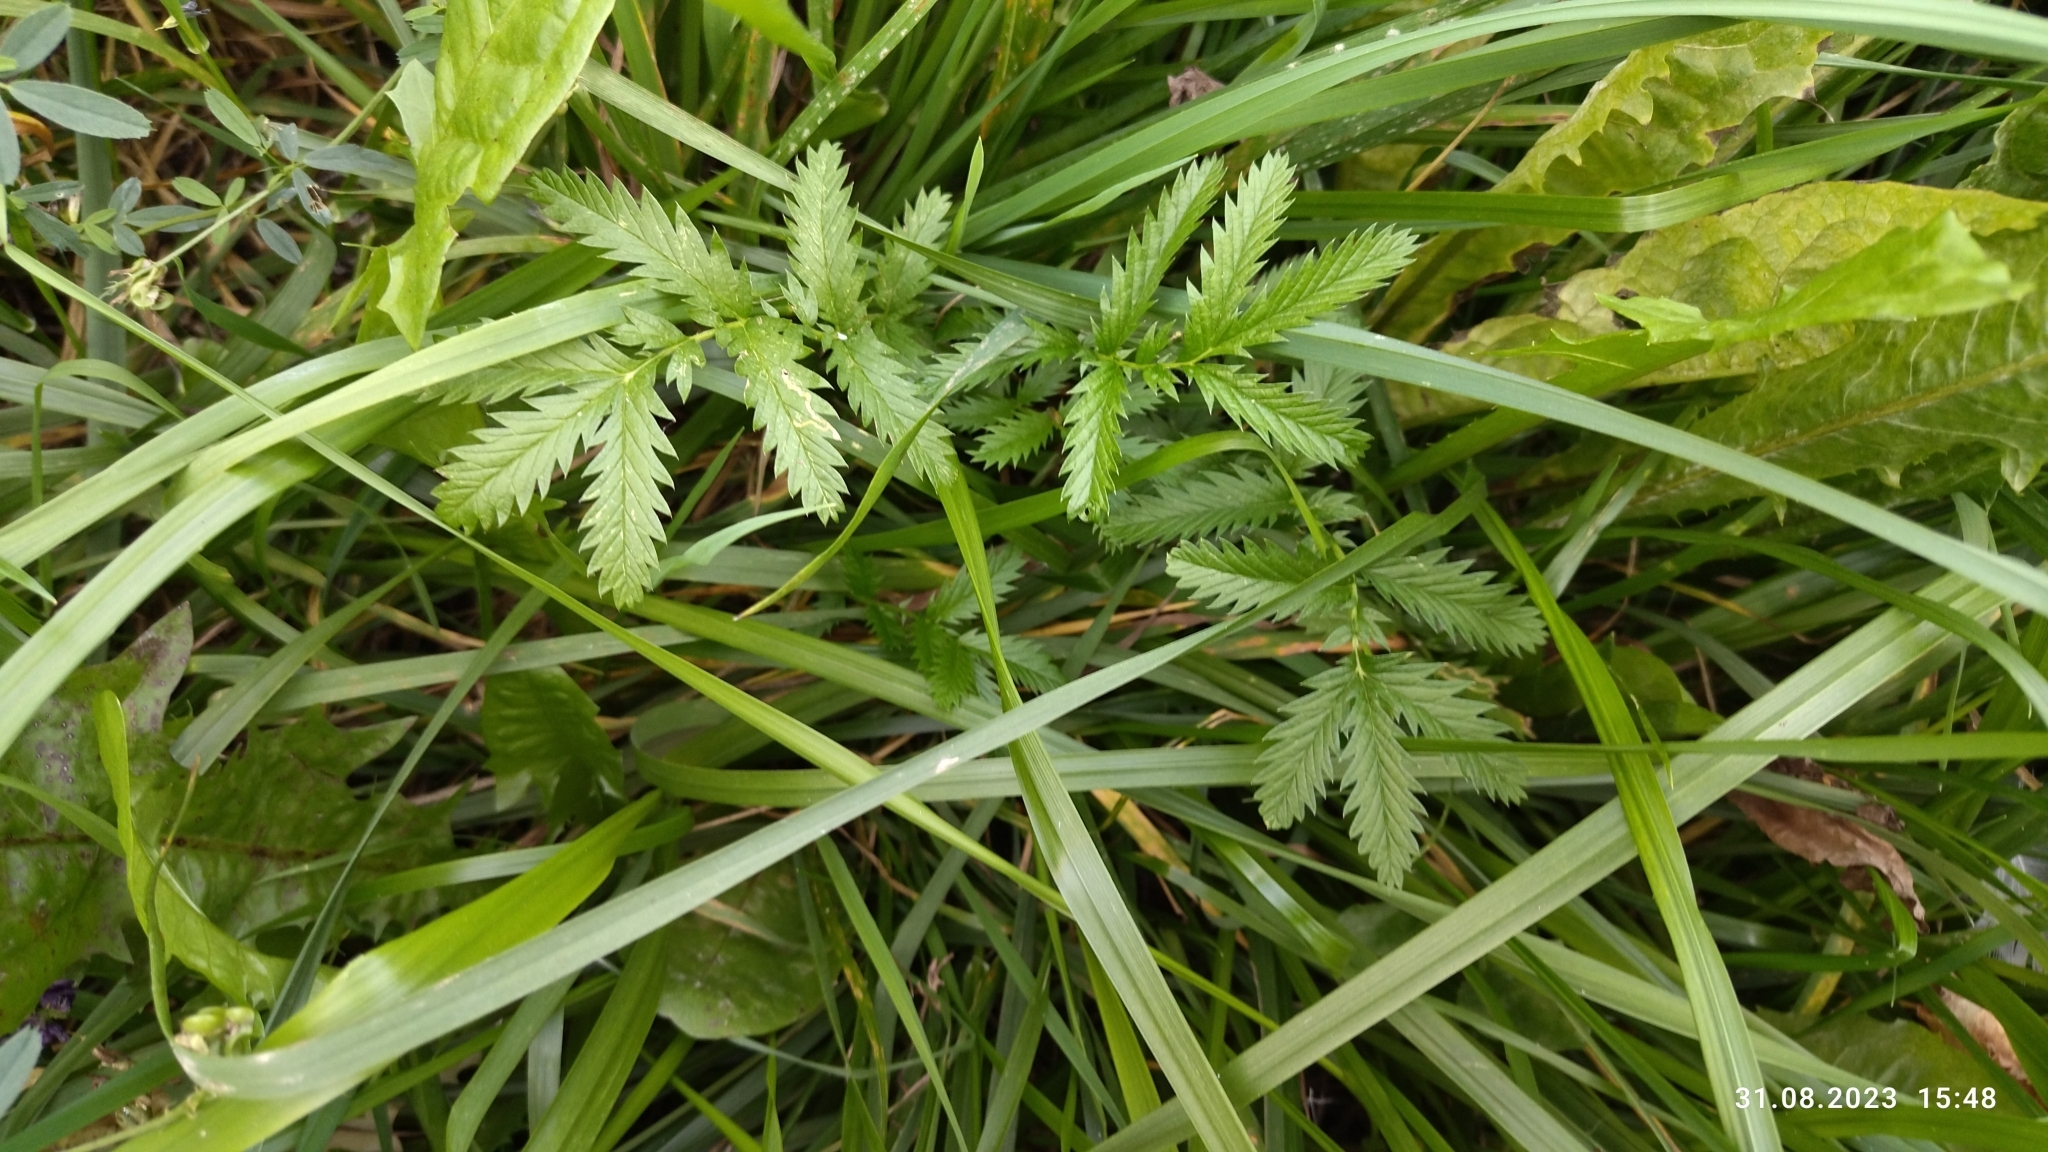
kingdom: Plantae
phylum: Tracheophyta
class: Magnoliopsida
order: Rosales
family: Rosaceae
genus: Argentina
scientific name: Argentina anserina
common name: Common silverweed
